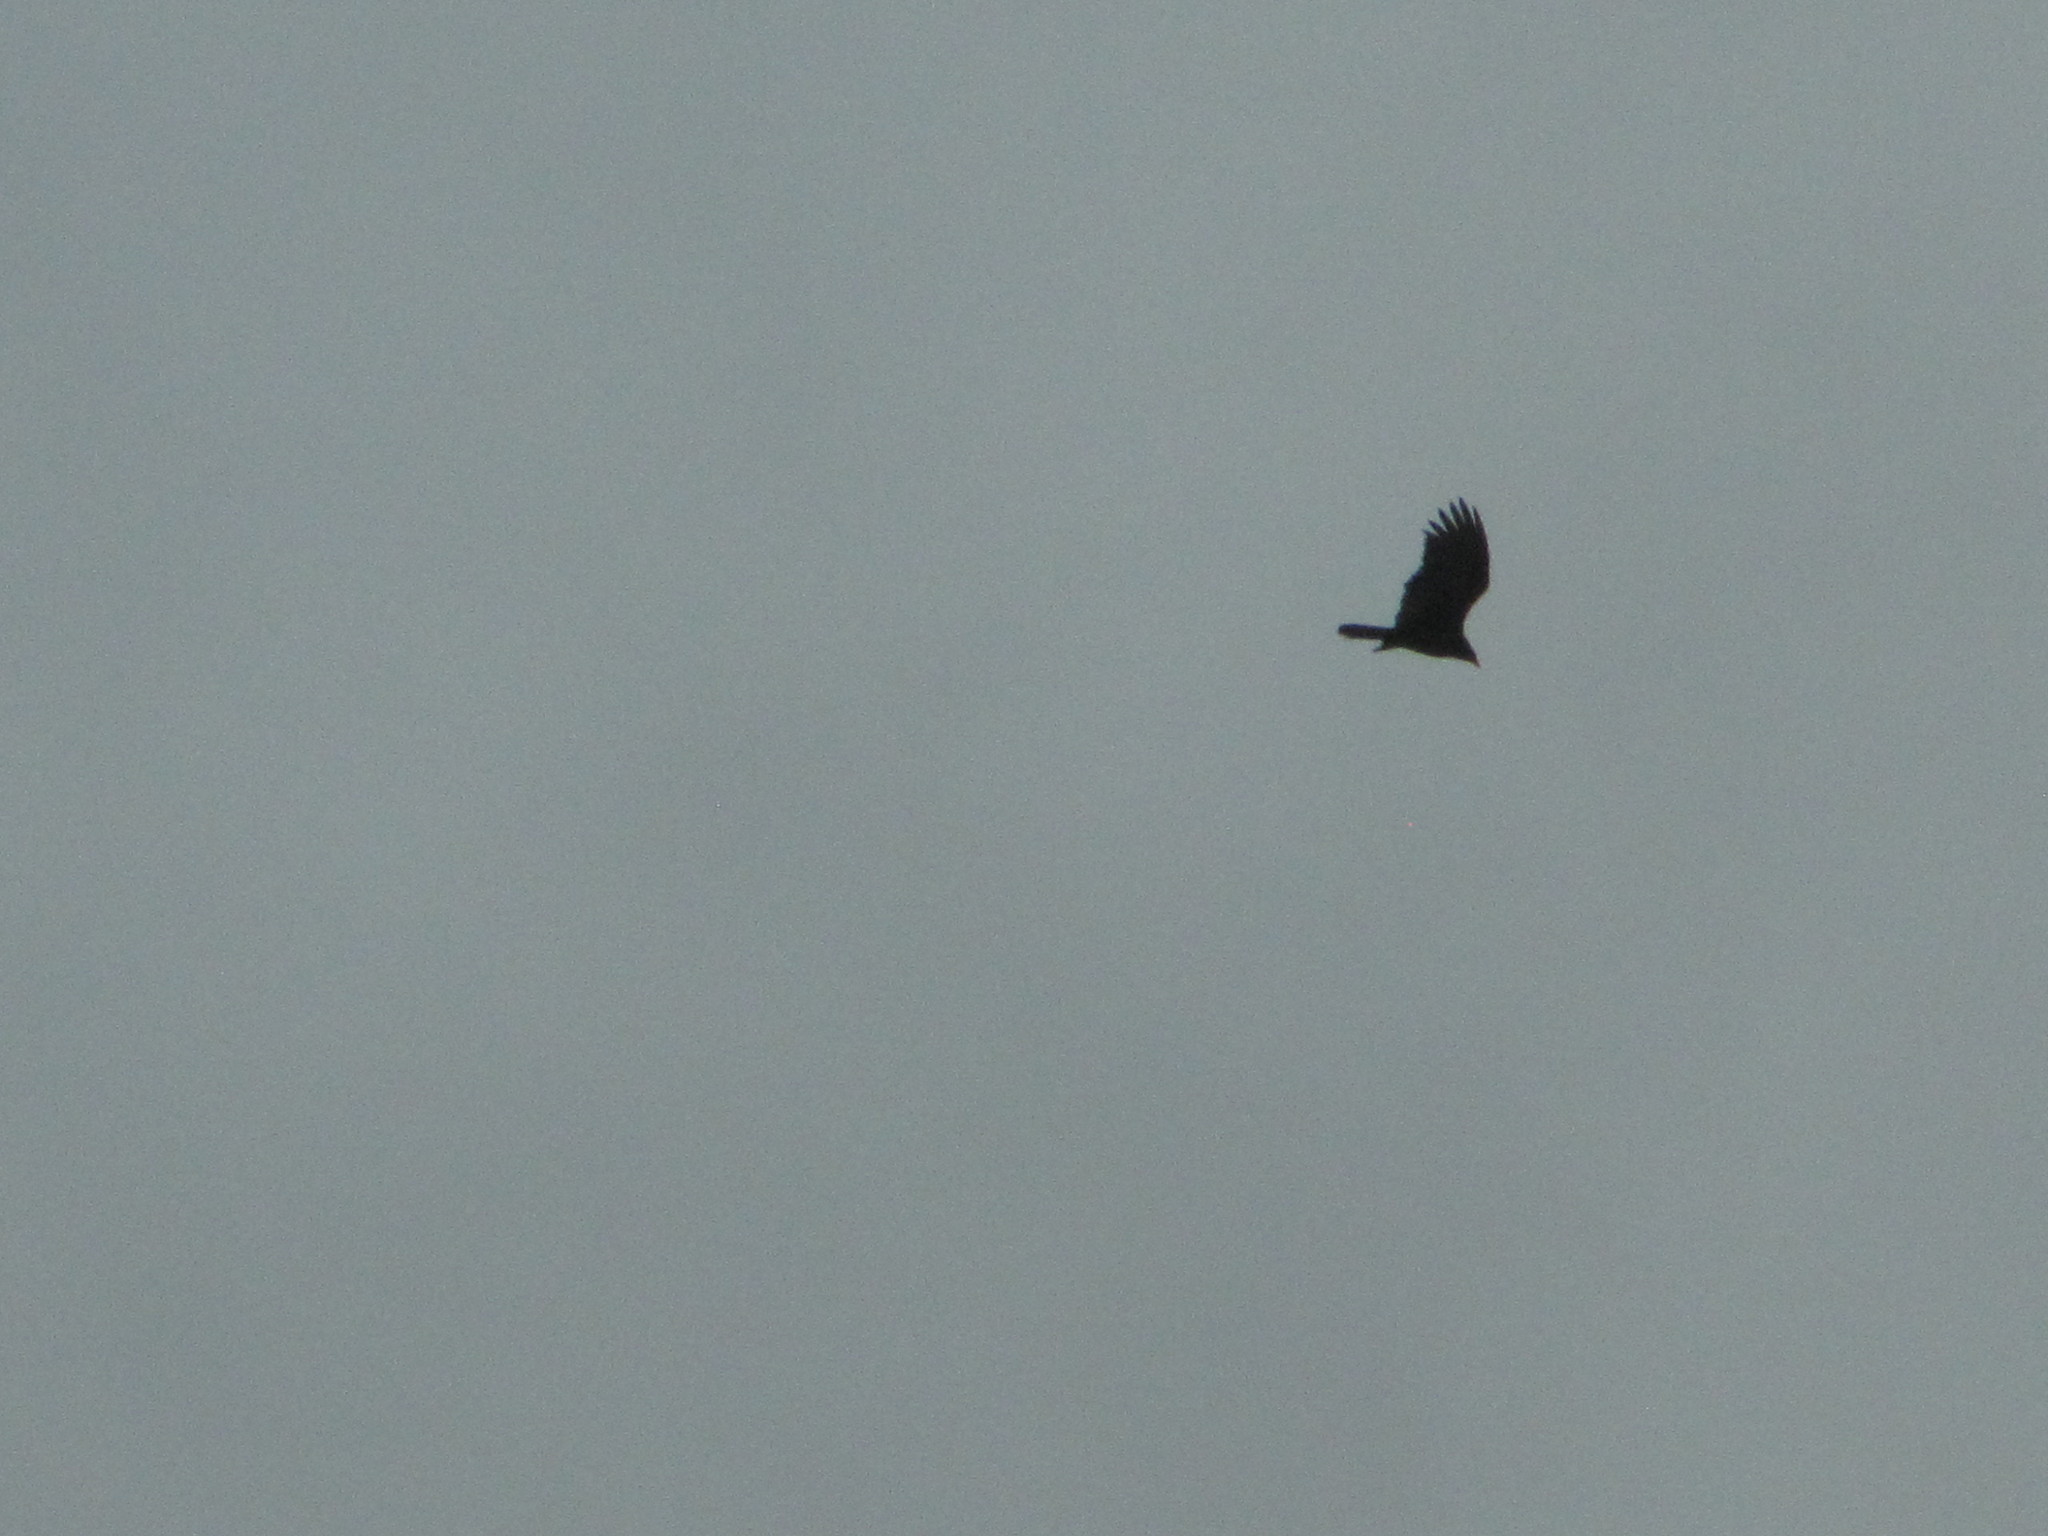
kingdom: Animalia
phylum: Chordata
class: Aves
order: Accipitriformes
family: Cathartidae
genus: Cathartes
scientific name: Cathartes aura
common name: Turkey vulture
